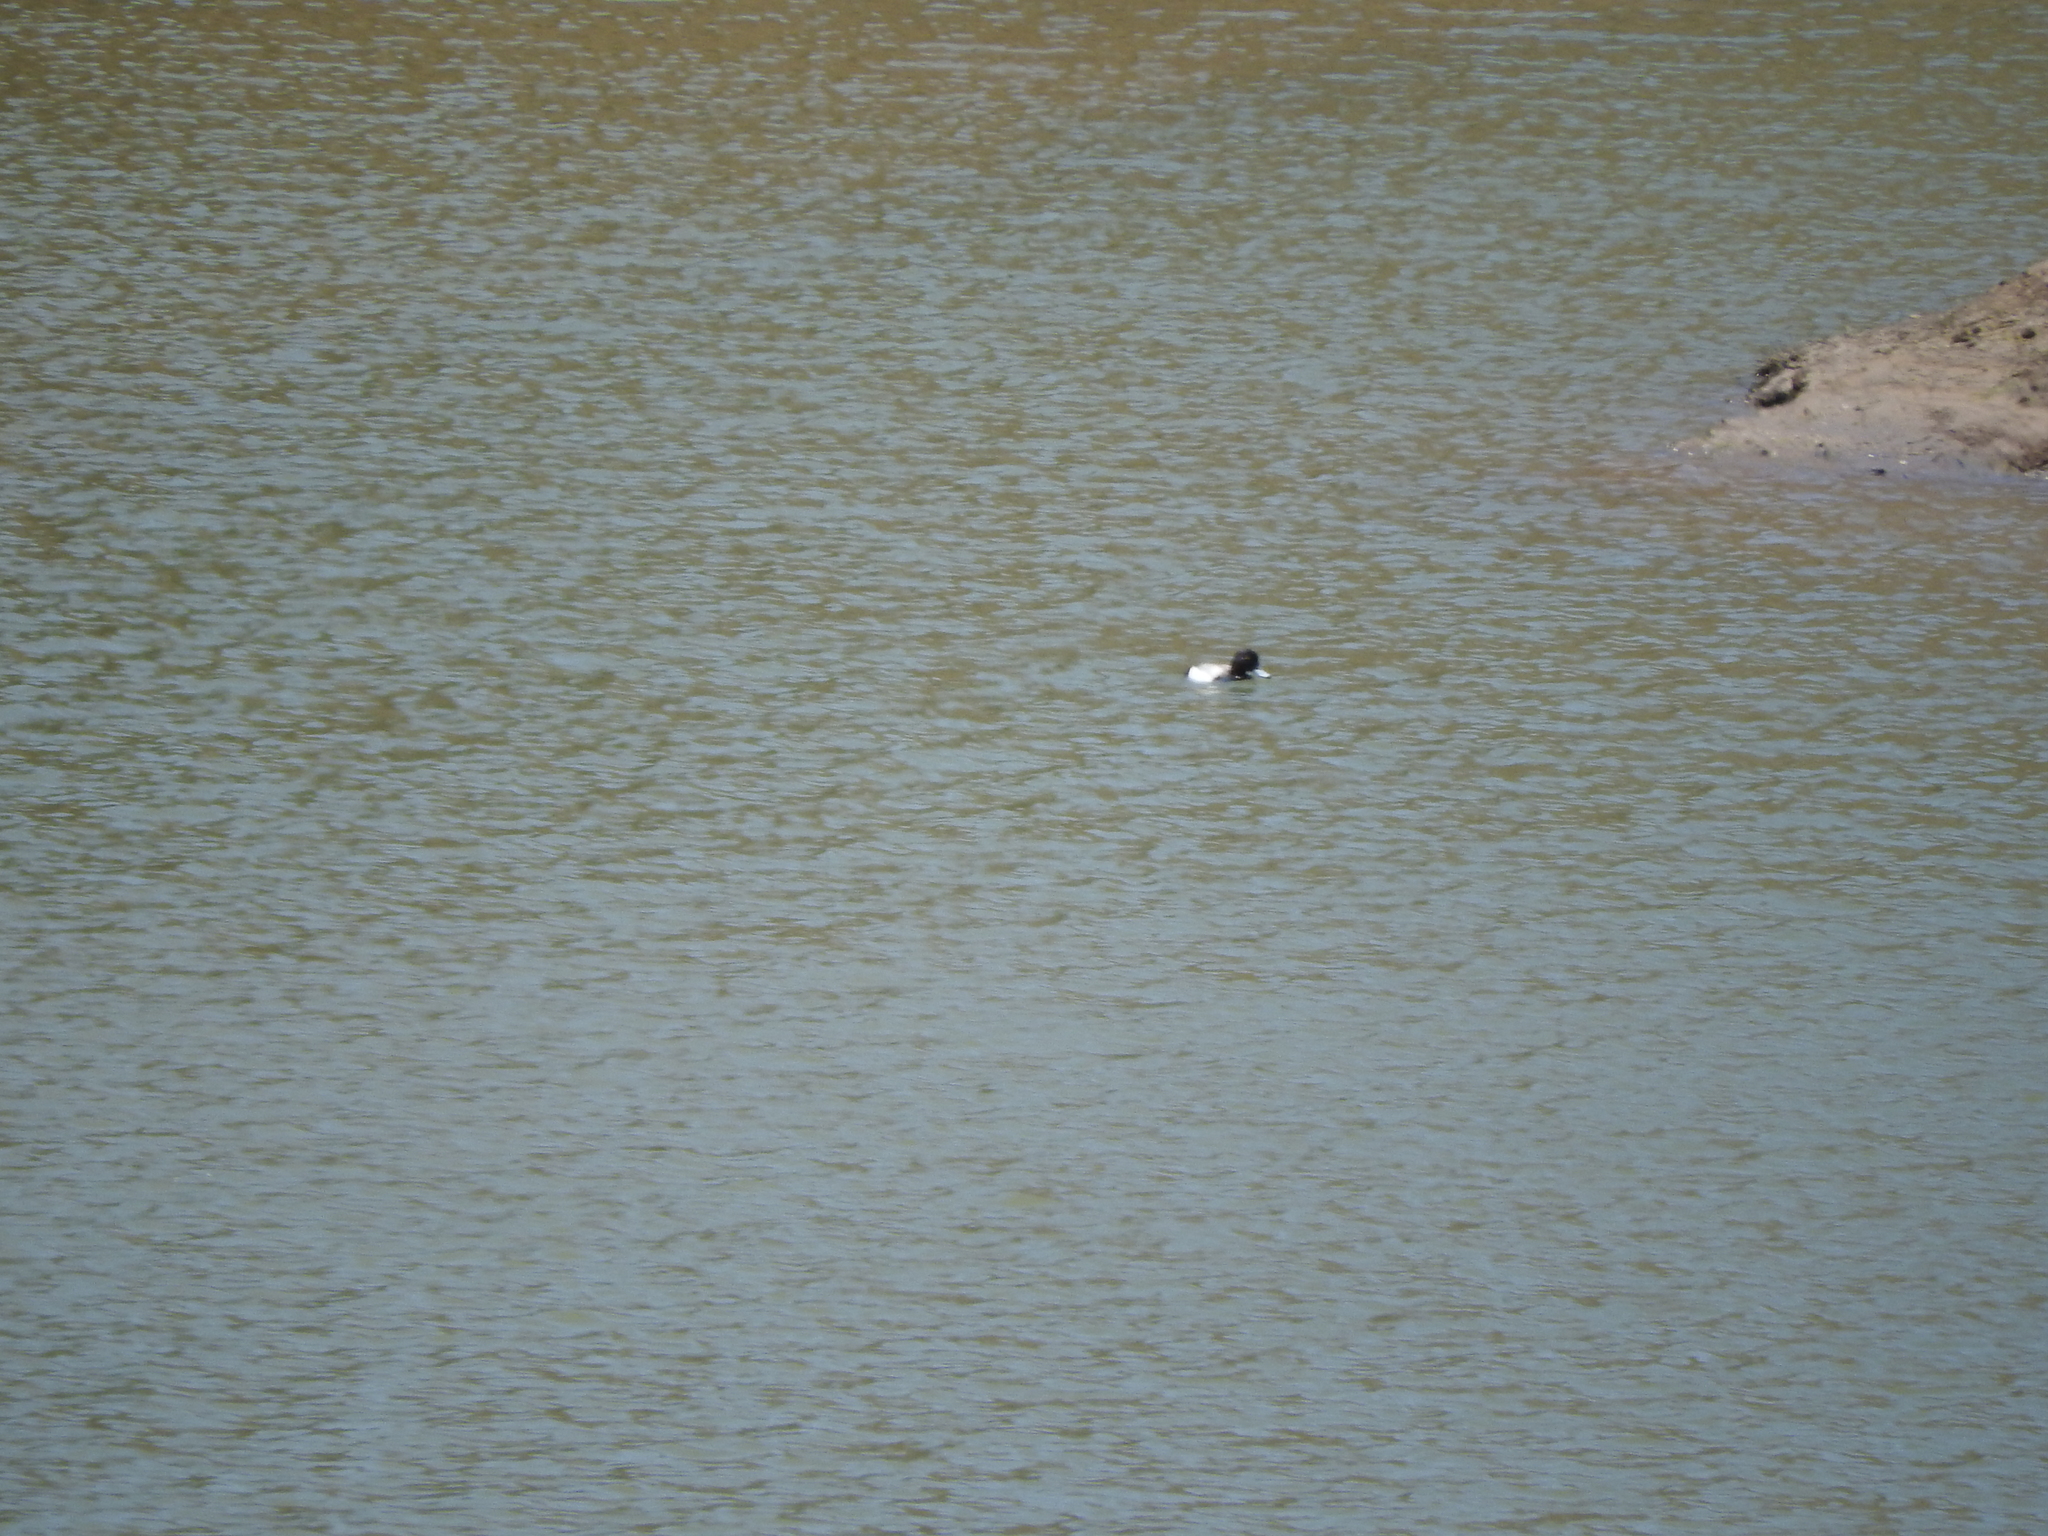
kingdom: Animalia
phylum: Chordata
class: Aves
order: Anseriformes
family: Anatidae
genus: Aythya
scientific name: Aythya affinis
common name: Lesser scaup
